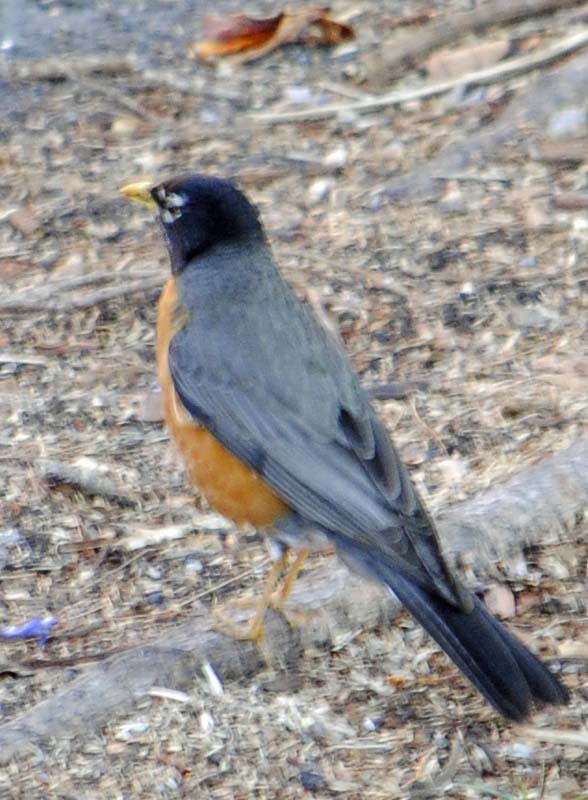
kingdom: Animalia
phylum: Chordata
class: Aves
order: Passeriformes
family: Turdidae
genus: Turdus
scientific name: Turdus migratorius
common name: American robin
